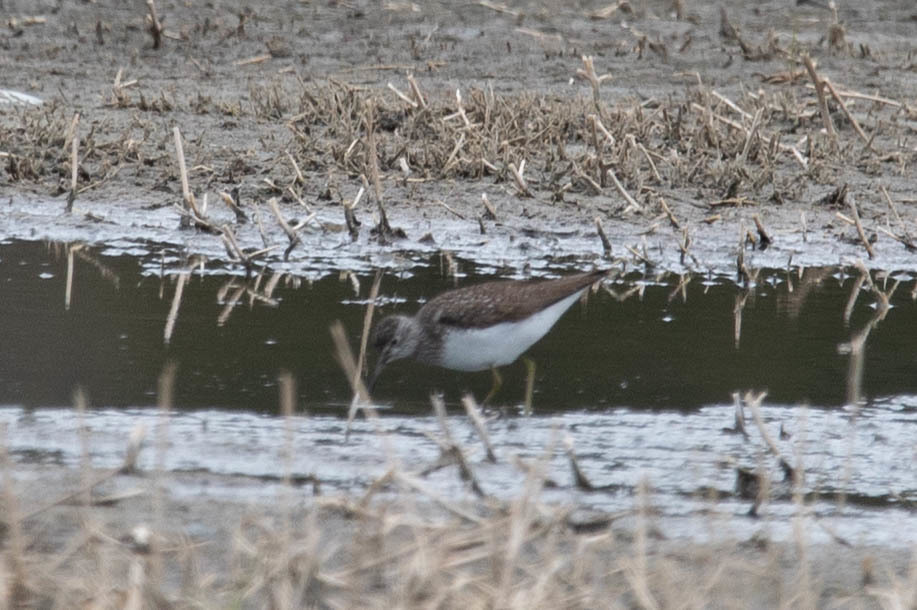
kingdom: Animalia
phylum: Chordata
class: Aves
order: Charadriiformes
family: Scolopacidae
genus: Tringa
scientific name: Tringa solitaria
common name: Solitary sandpiper
